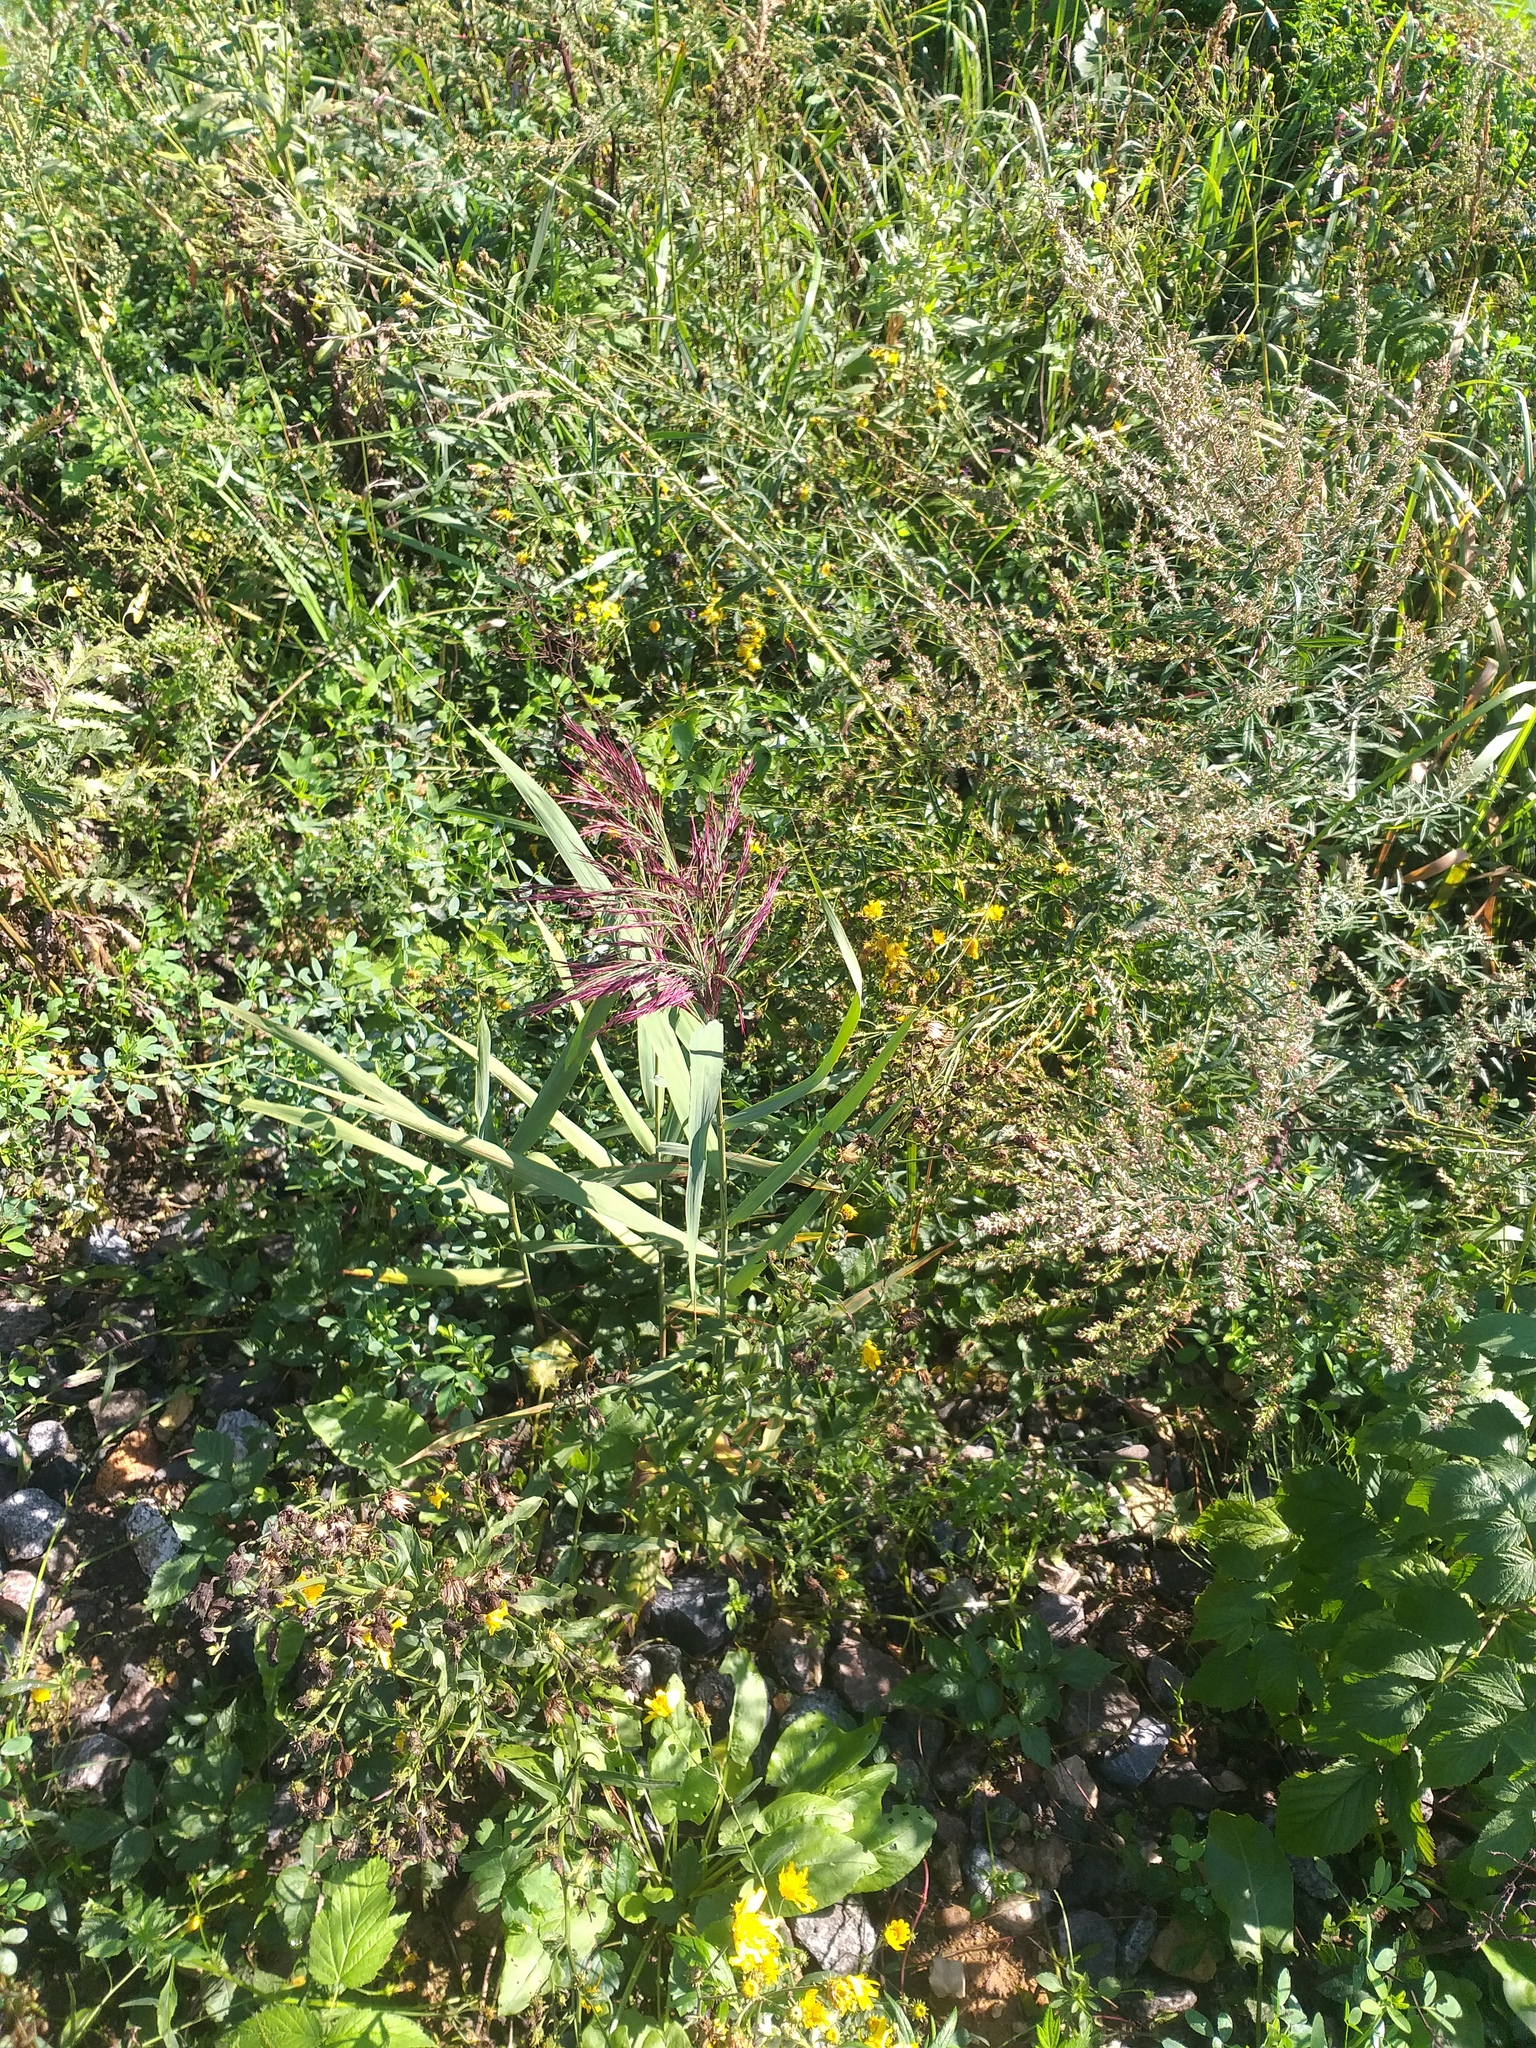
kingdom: Plantae
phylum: Tracheophyta
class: Liliopsida
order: Poales
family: Poaceae
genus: Phragmites
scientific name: Phragmites australis
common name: Common reed
